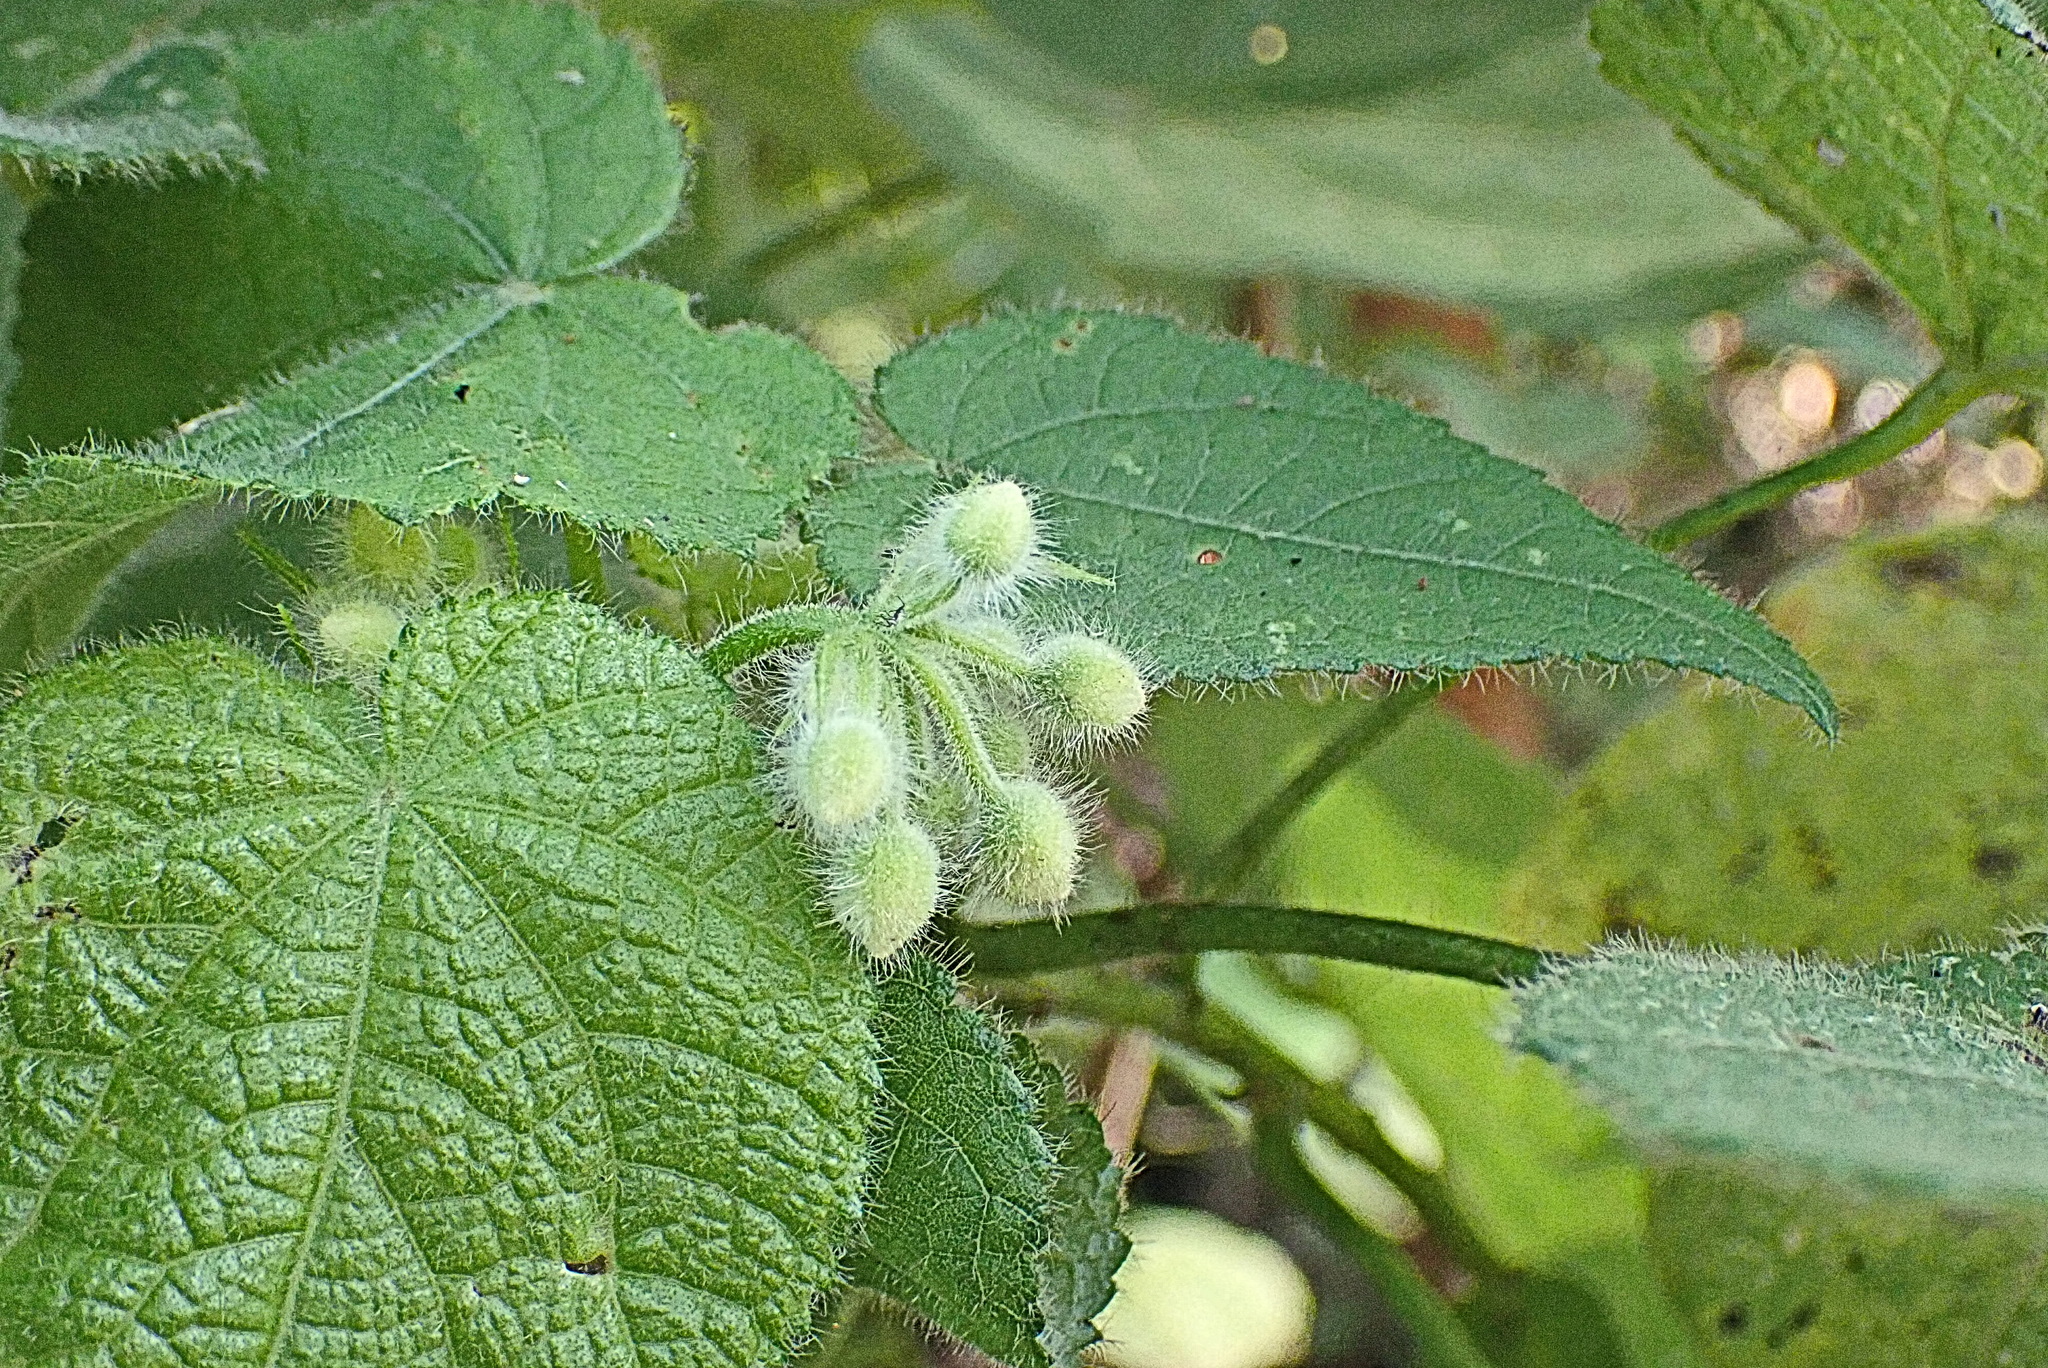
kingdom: Plantae
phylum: Tracheophyta
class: Magnoliopsida
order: Malvales
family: Malvaceae
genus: Sparrmannia
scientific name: Sparrmannia africana
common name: African-hemp
